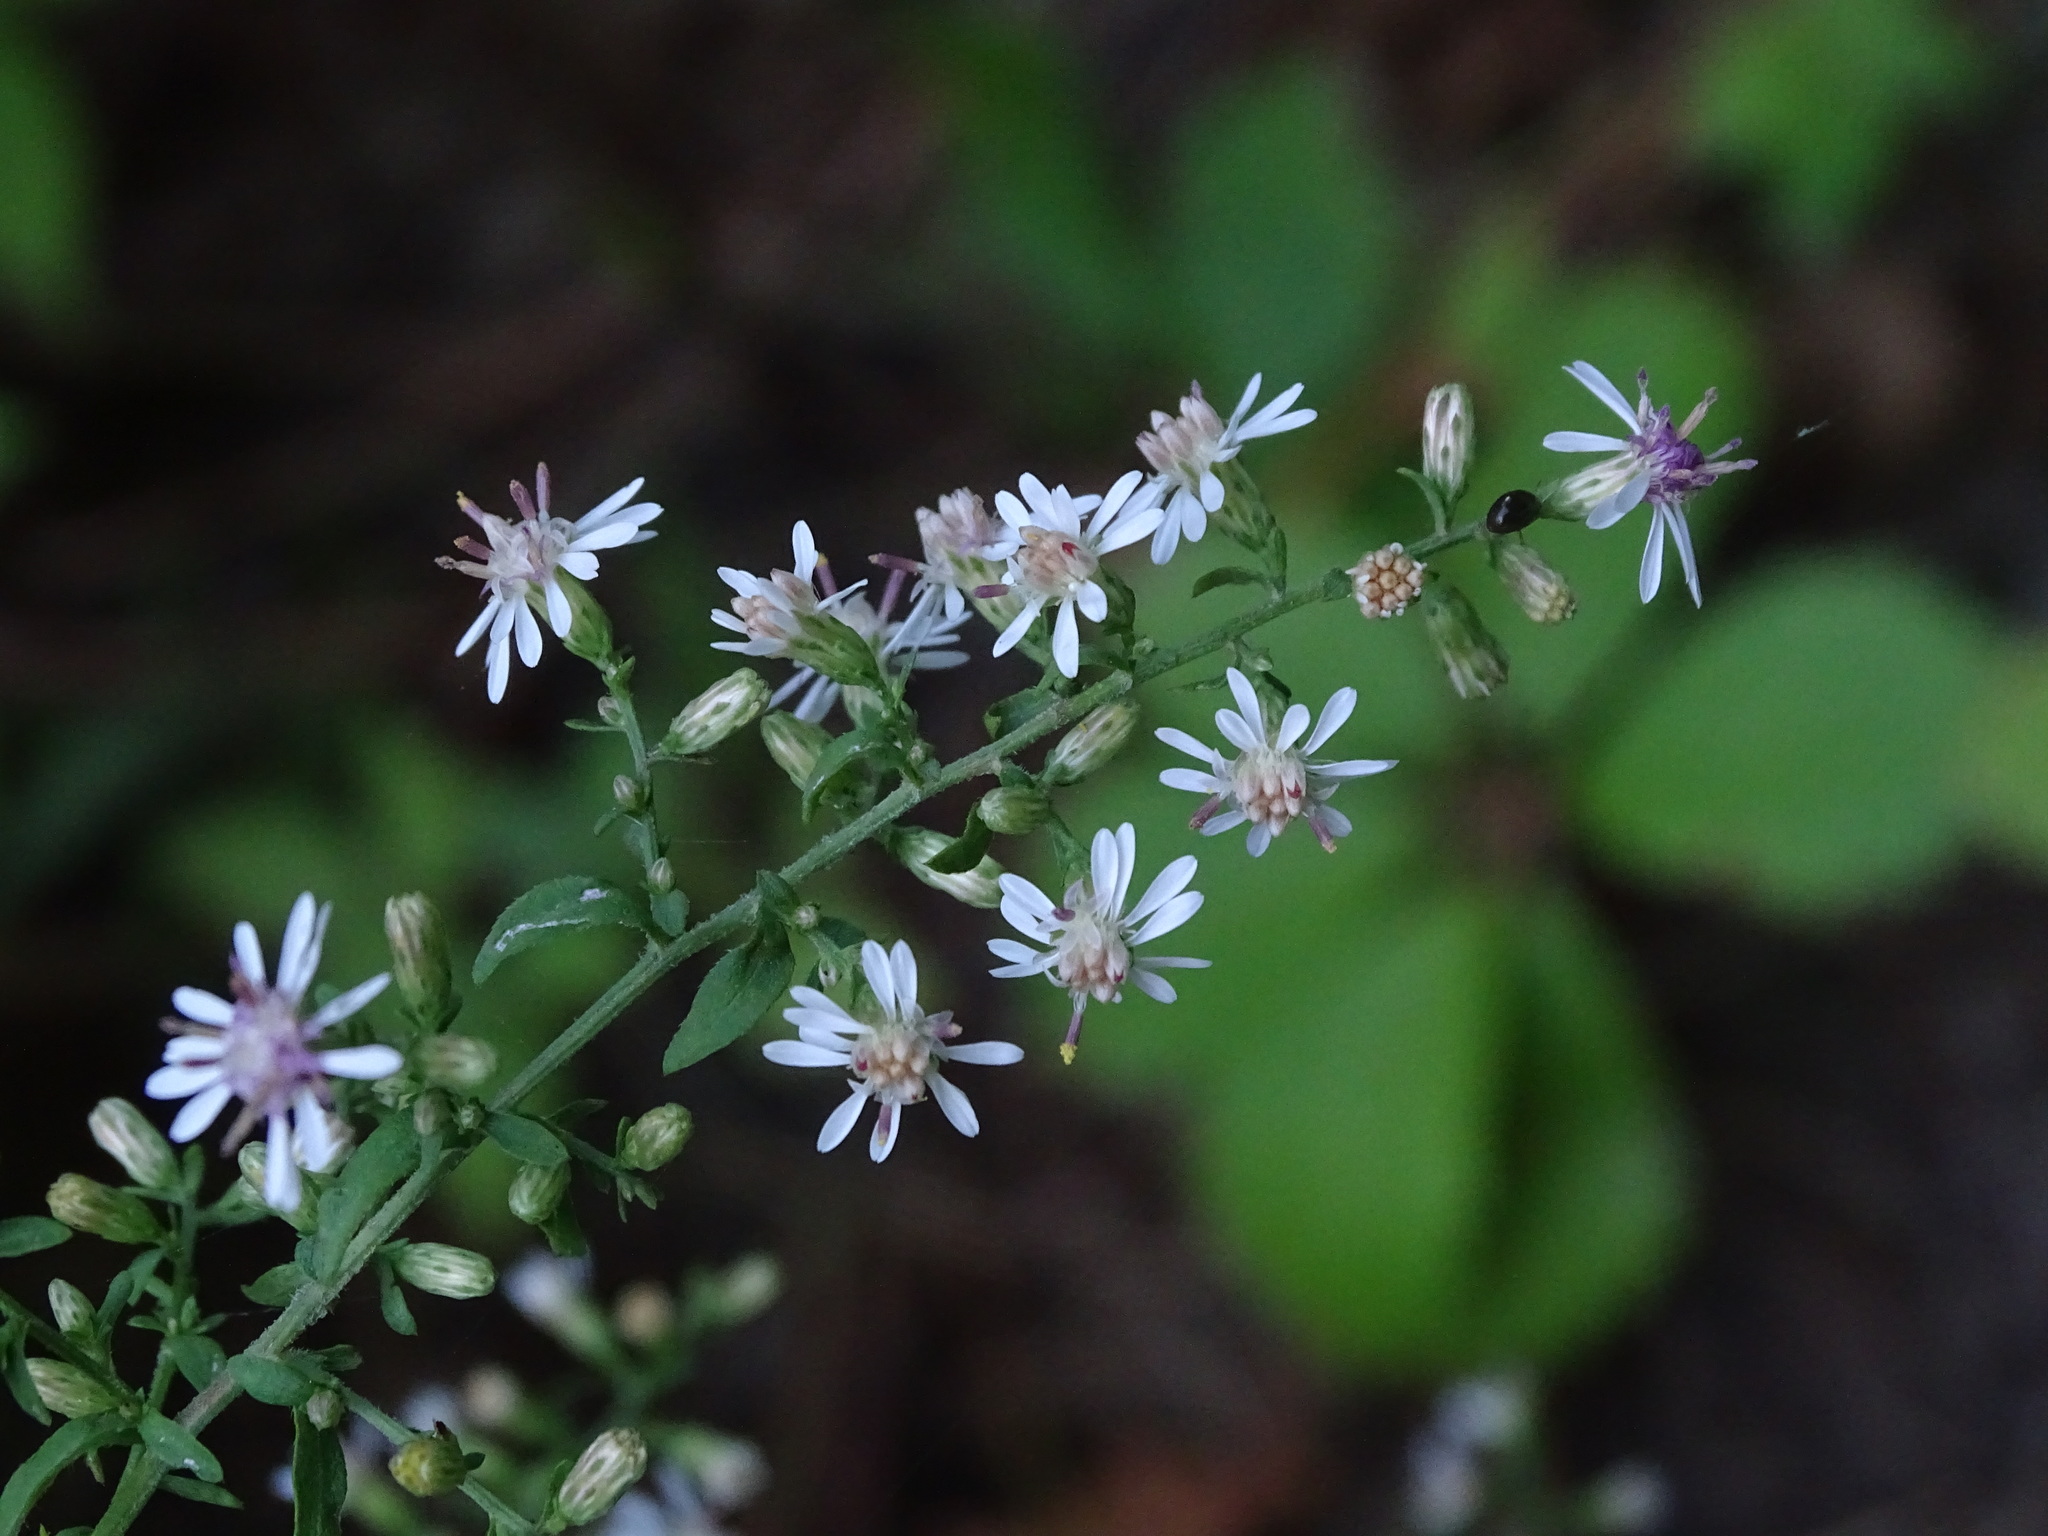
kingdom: Plantae
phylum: Tracheophyta
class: Magnoliopsida
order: Asterales
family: Asteraceae
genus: Symphyotrichum
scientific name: Symphyotrichum lateriflorum
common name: Calico aster
